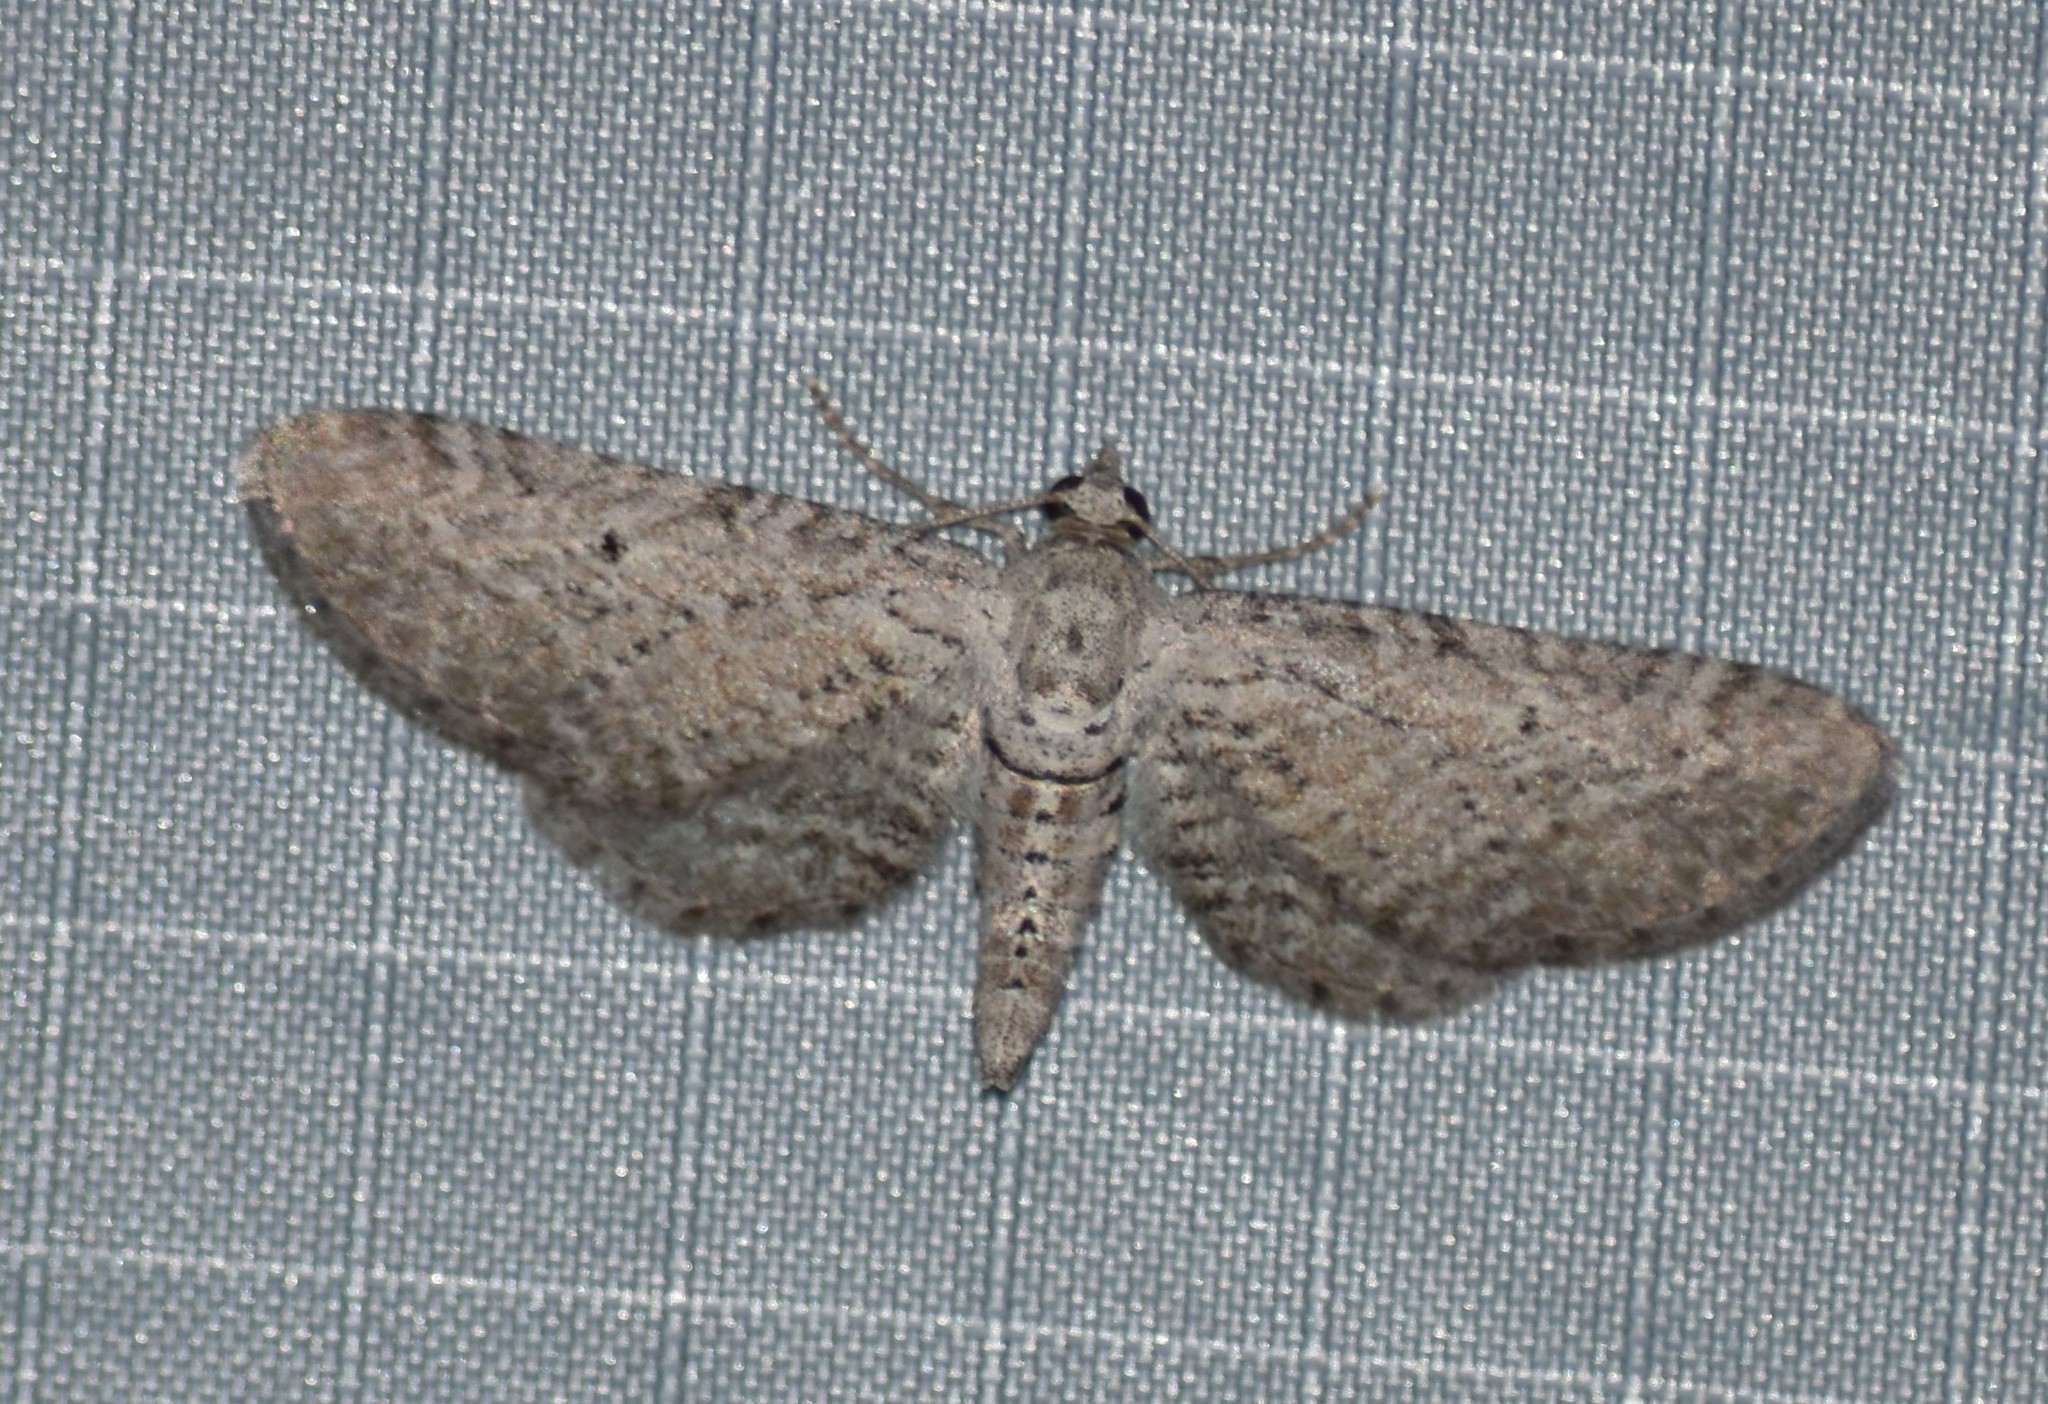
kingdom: Animalia
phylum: Arthropoda
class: Insecta
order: Lepidoptera
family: Geometridae
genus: Eupithecia
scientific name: Eupithecia zygadeniata
